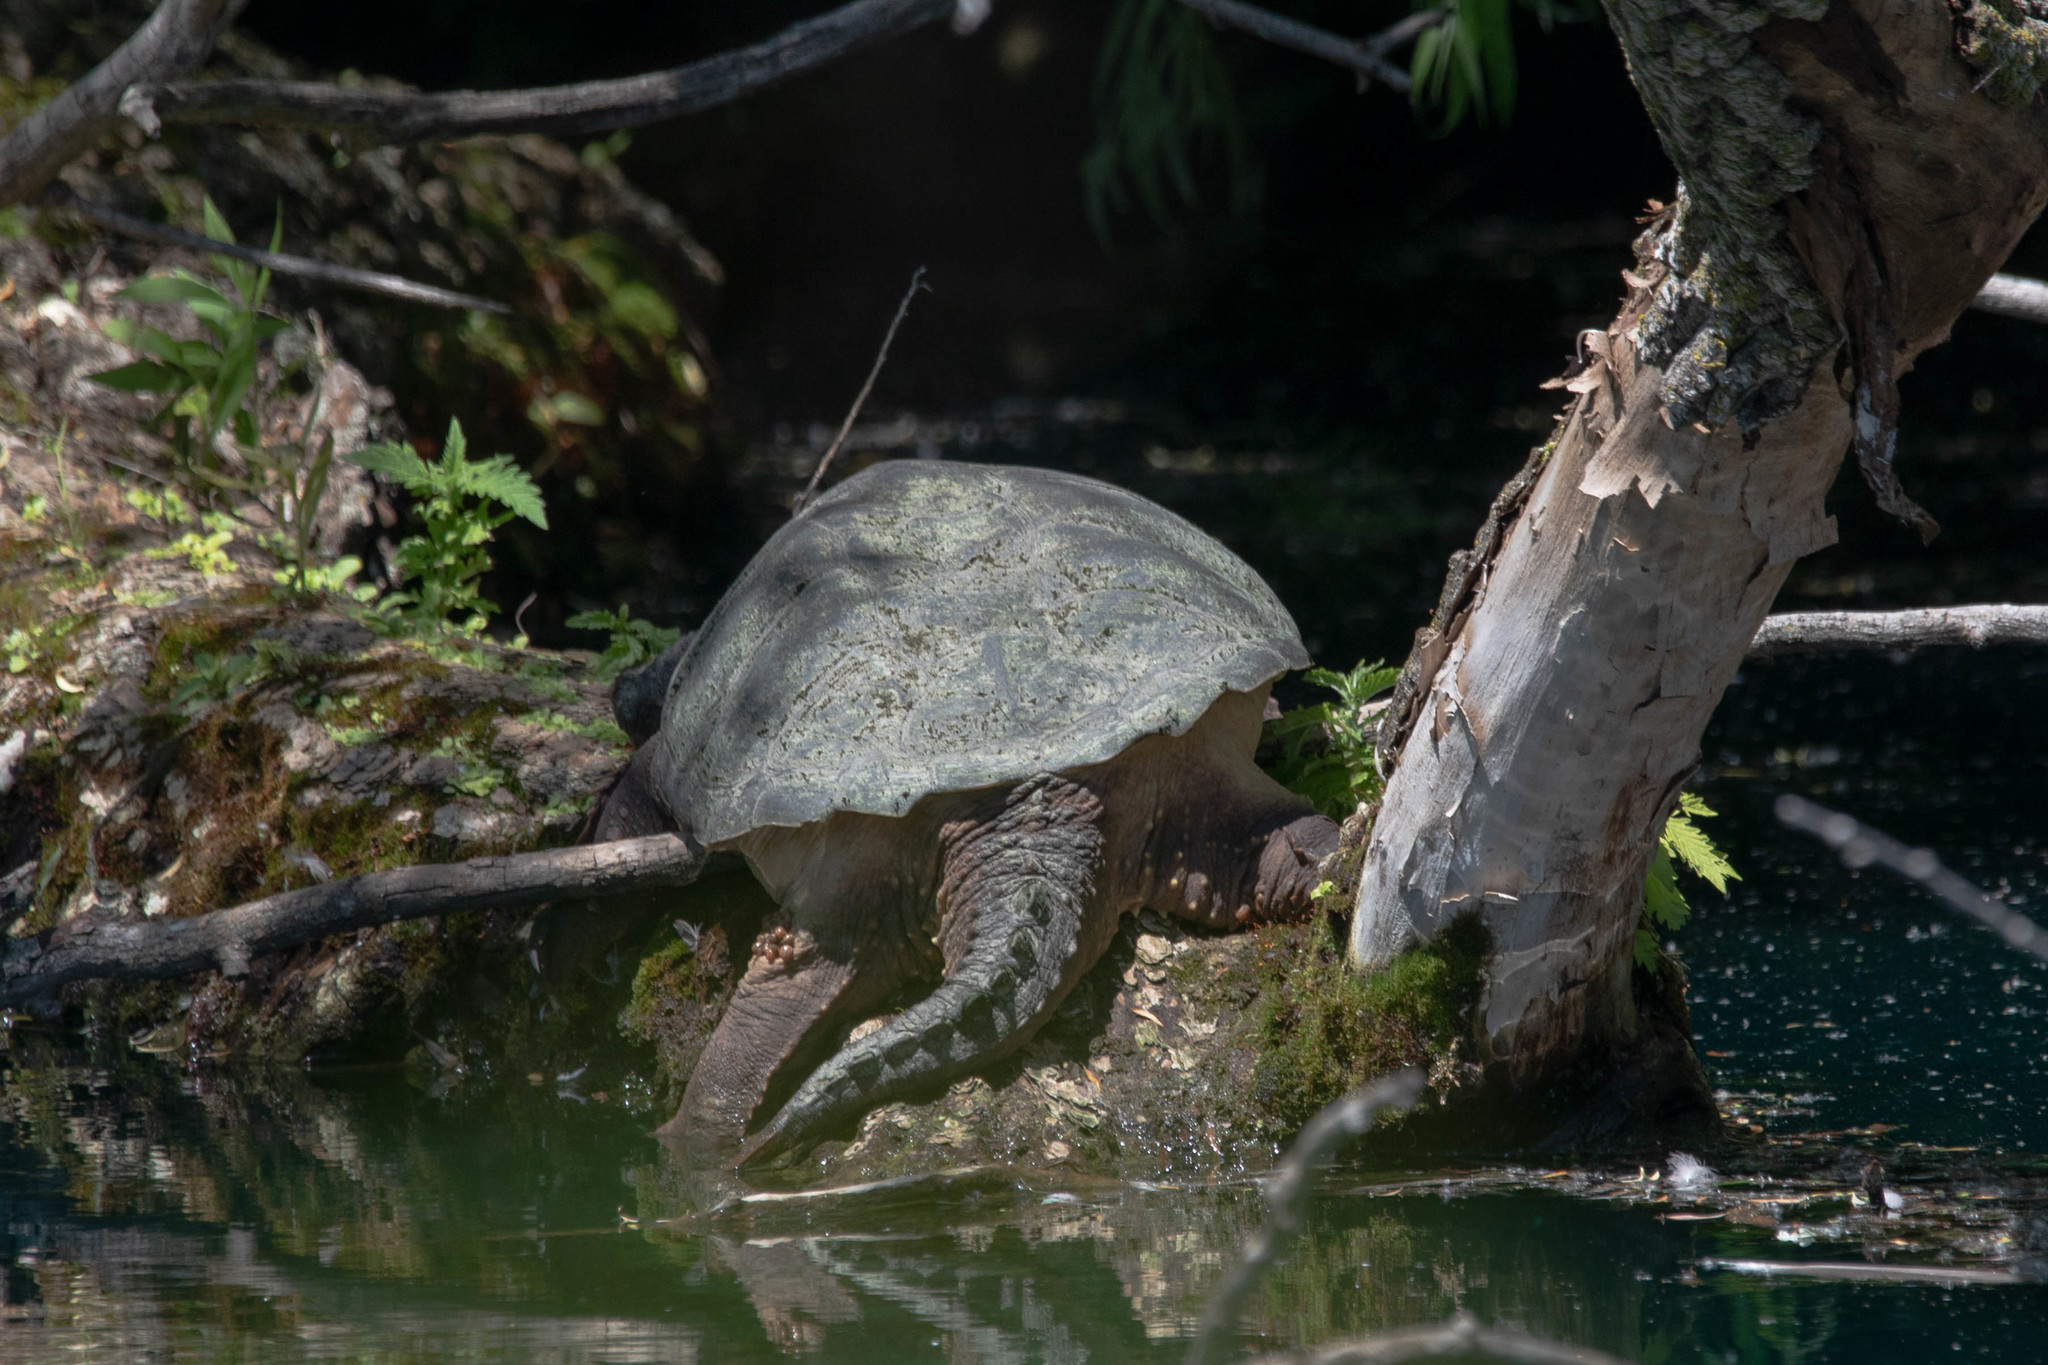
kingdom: Animalia
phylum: Chordata
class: Testudines
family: Chelydridae
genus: Chelydra
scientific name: Chelydra serpentina
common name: Common snapping turtle
